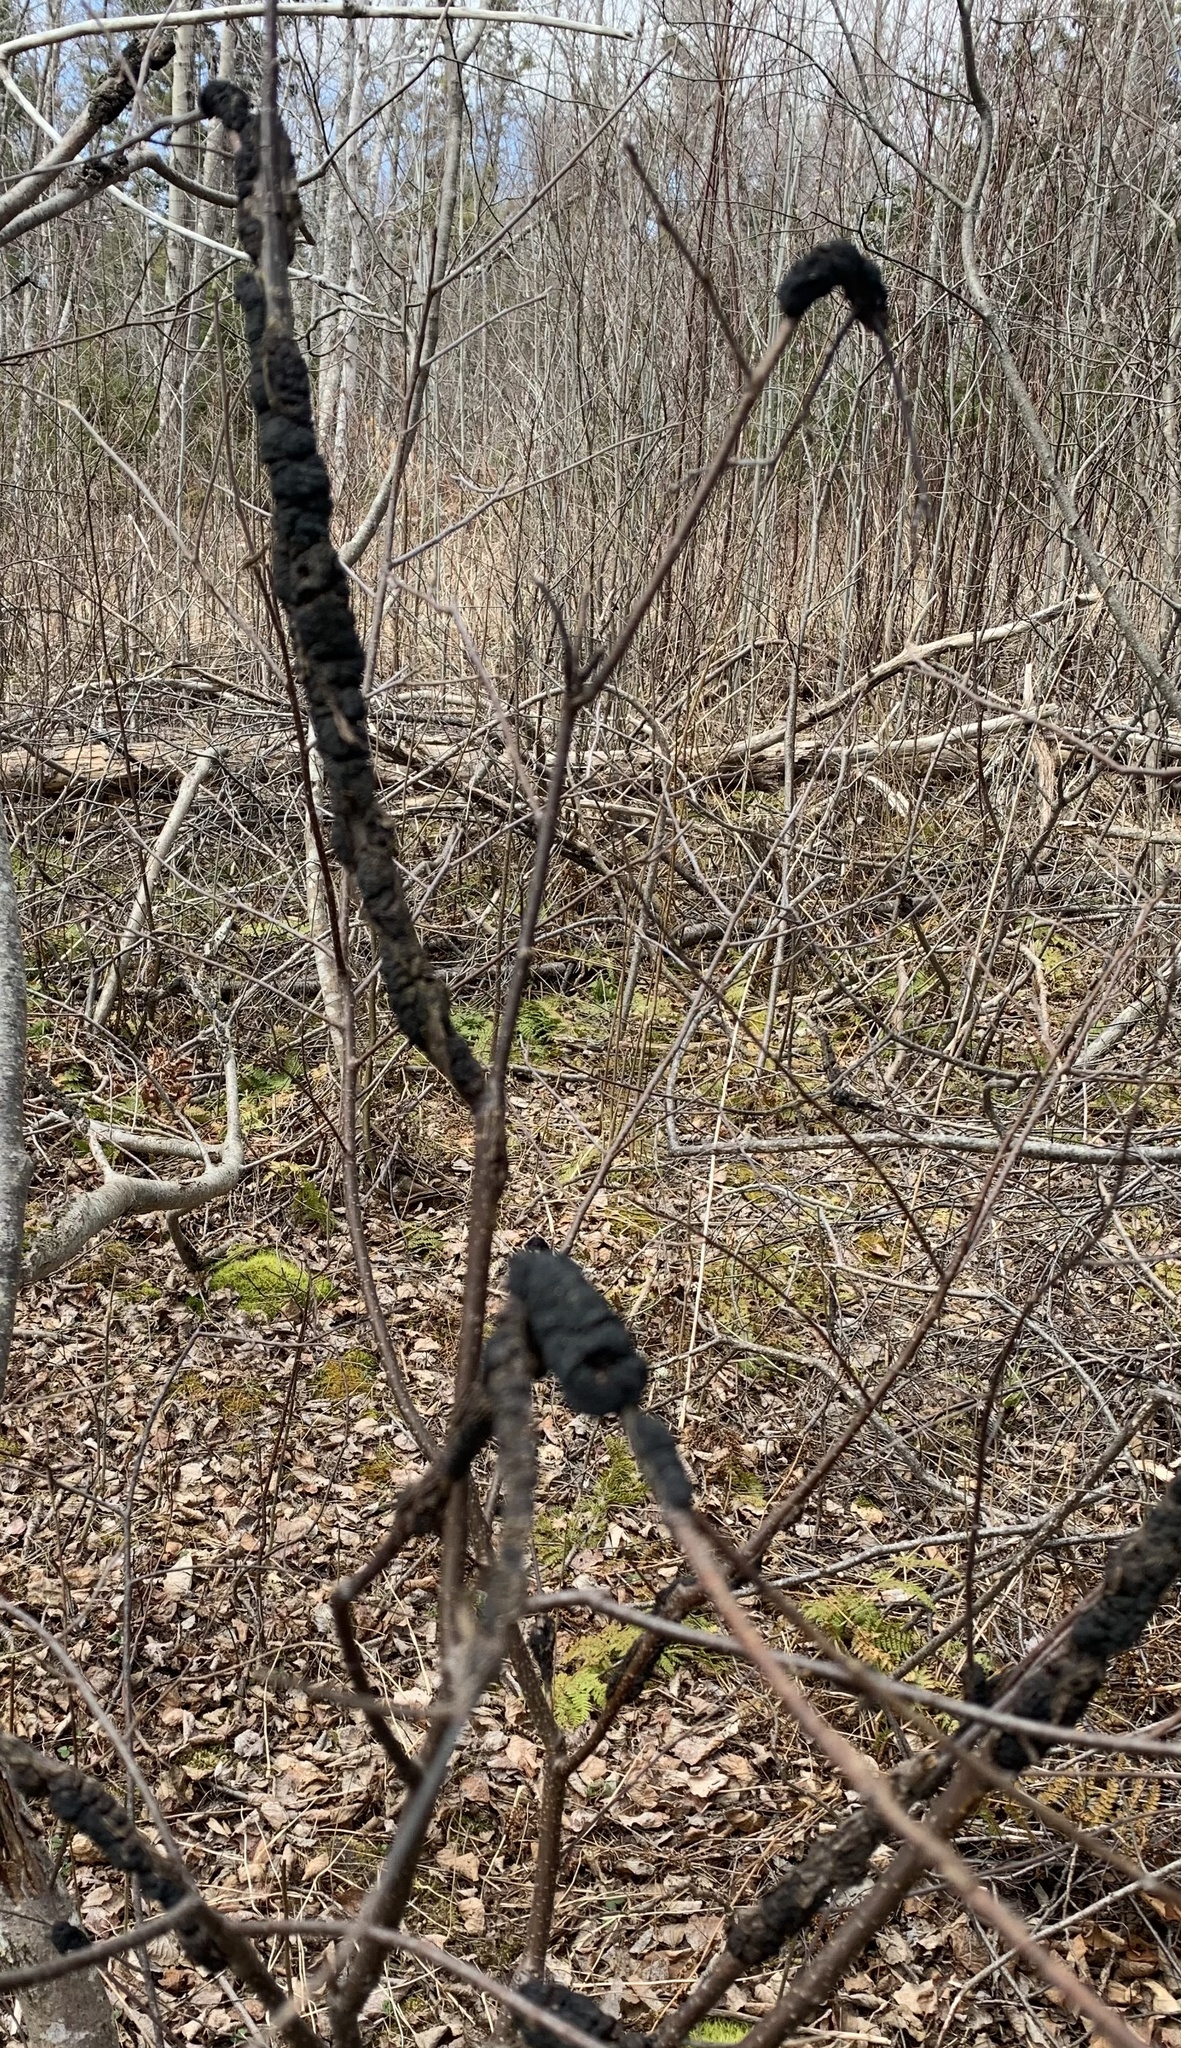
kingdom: Fungi
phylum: Ascomycota
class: Dothideomycetes
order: Venturiales
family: Venturiaceae
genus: Apiosporina
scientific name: Apiosporina morbosa
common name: Black knot
